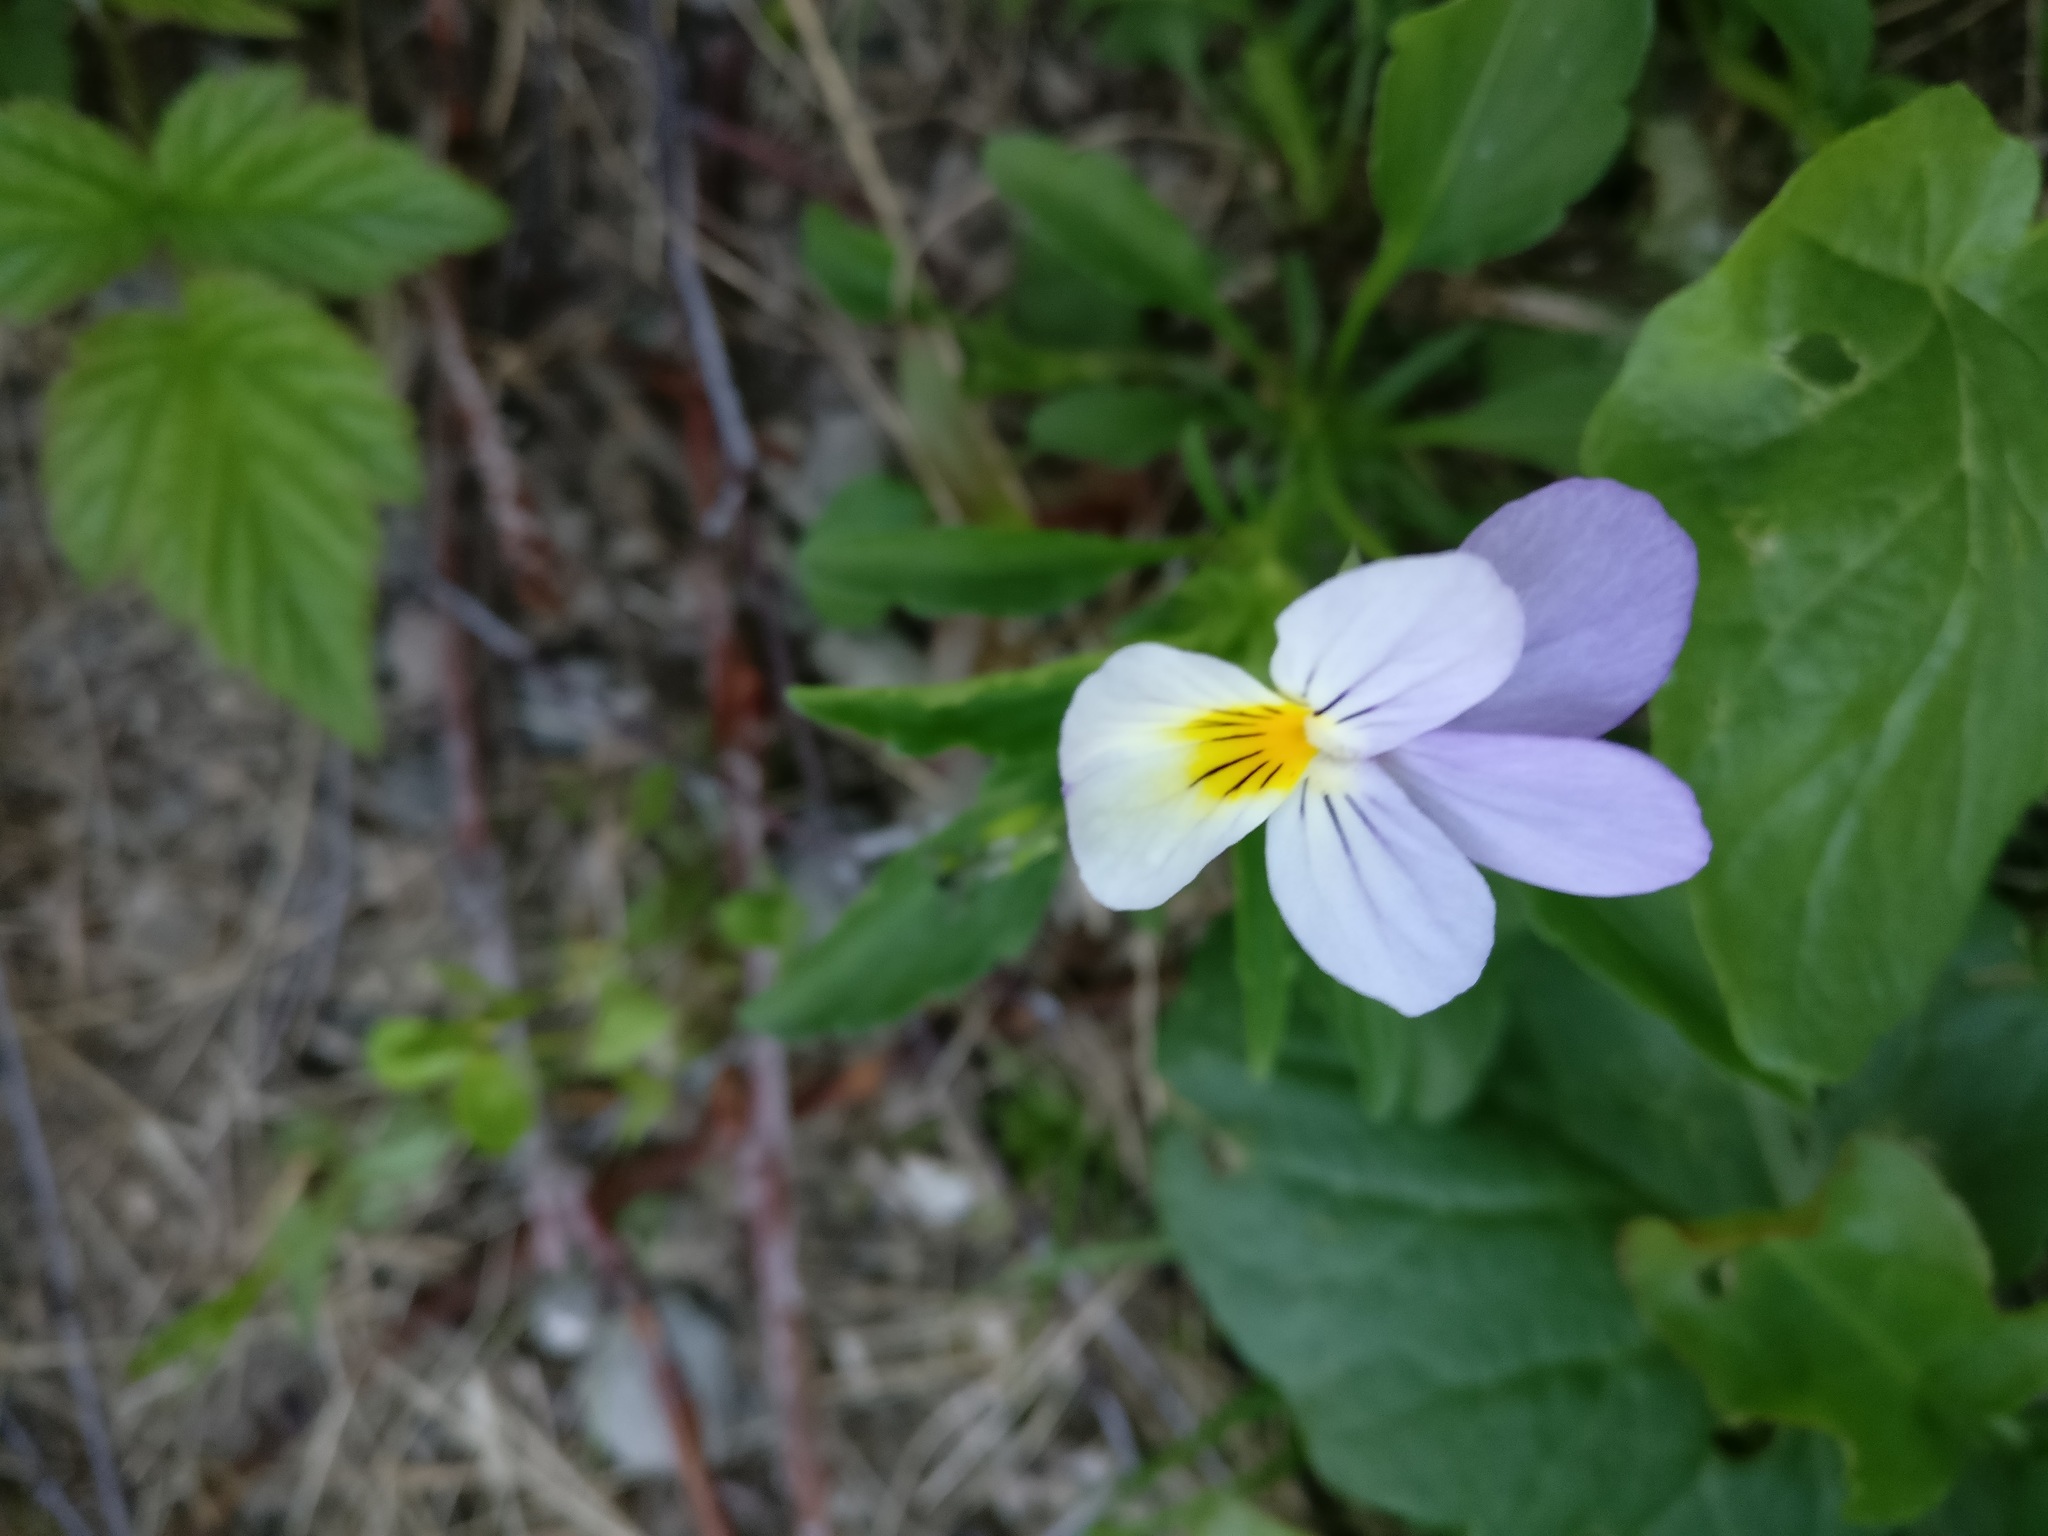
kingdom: Plantae
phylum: Tracheophyta
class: Magnoliopsida
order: Malpighiales
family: Violaceae
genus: Viola
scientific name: Viola tricolor
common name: Pansy
